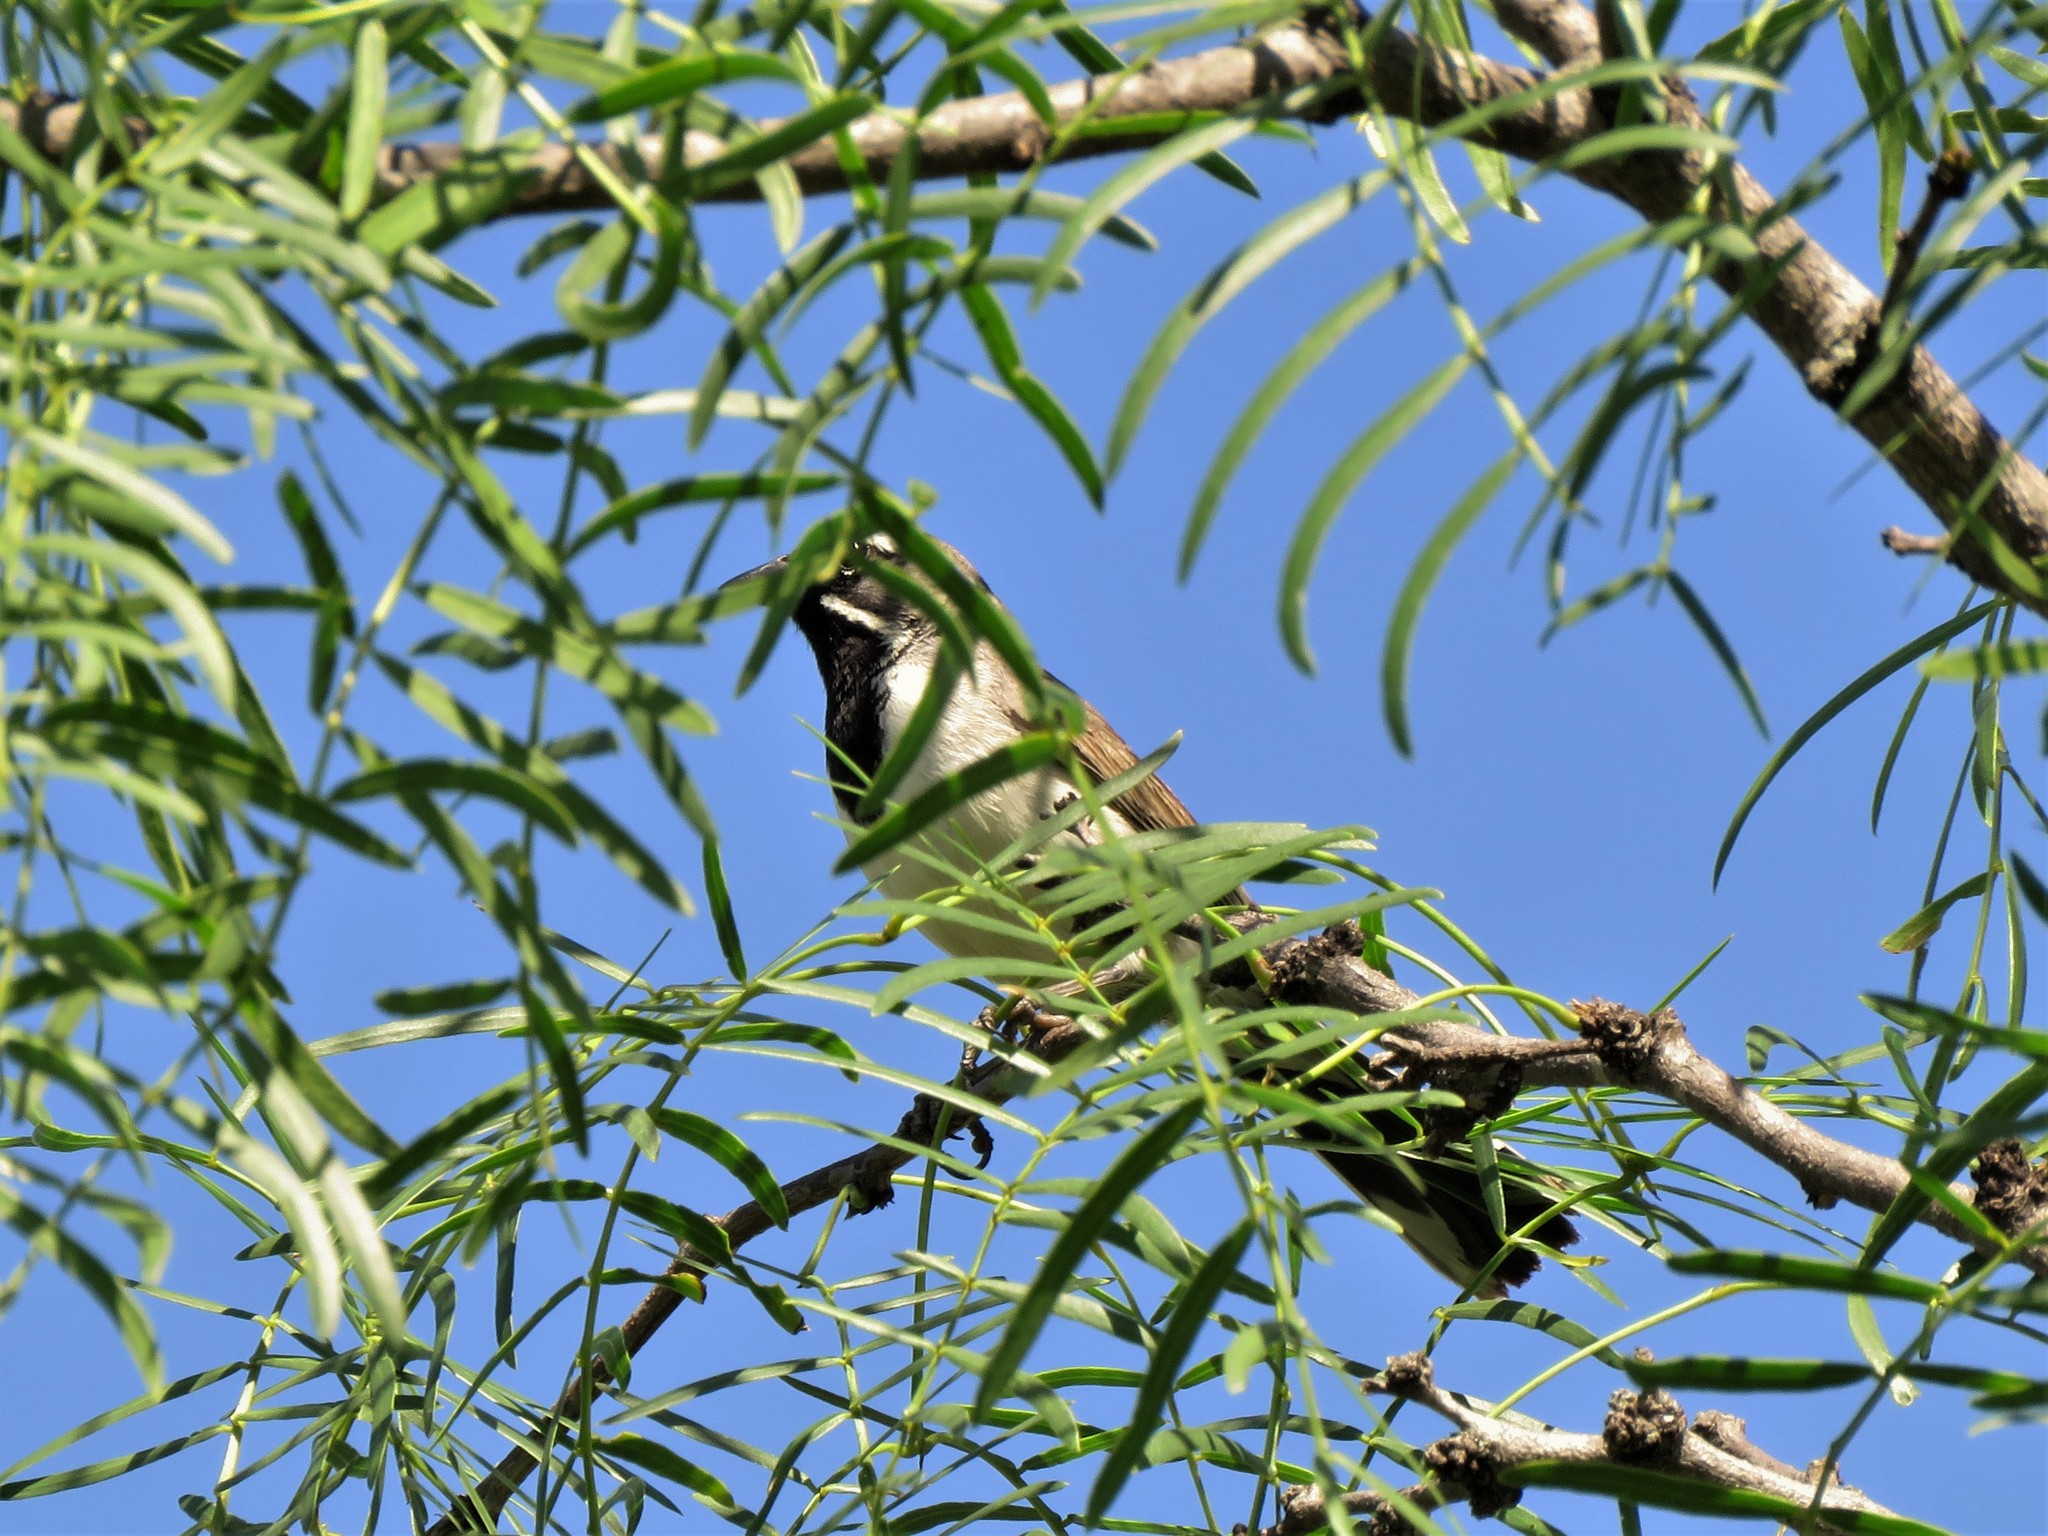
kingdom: Animalia
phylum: Chordata
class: Aves
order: Passeriformes
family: Passerellidae
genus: Amphispiza
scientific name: Amphispiza bilineata
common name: Black-throated sparrow
